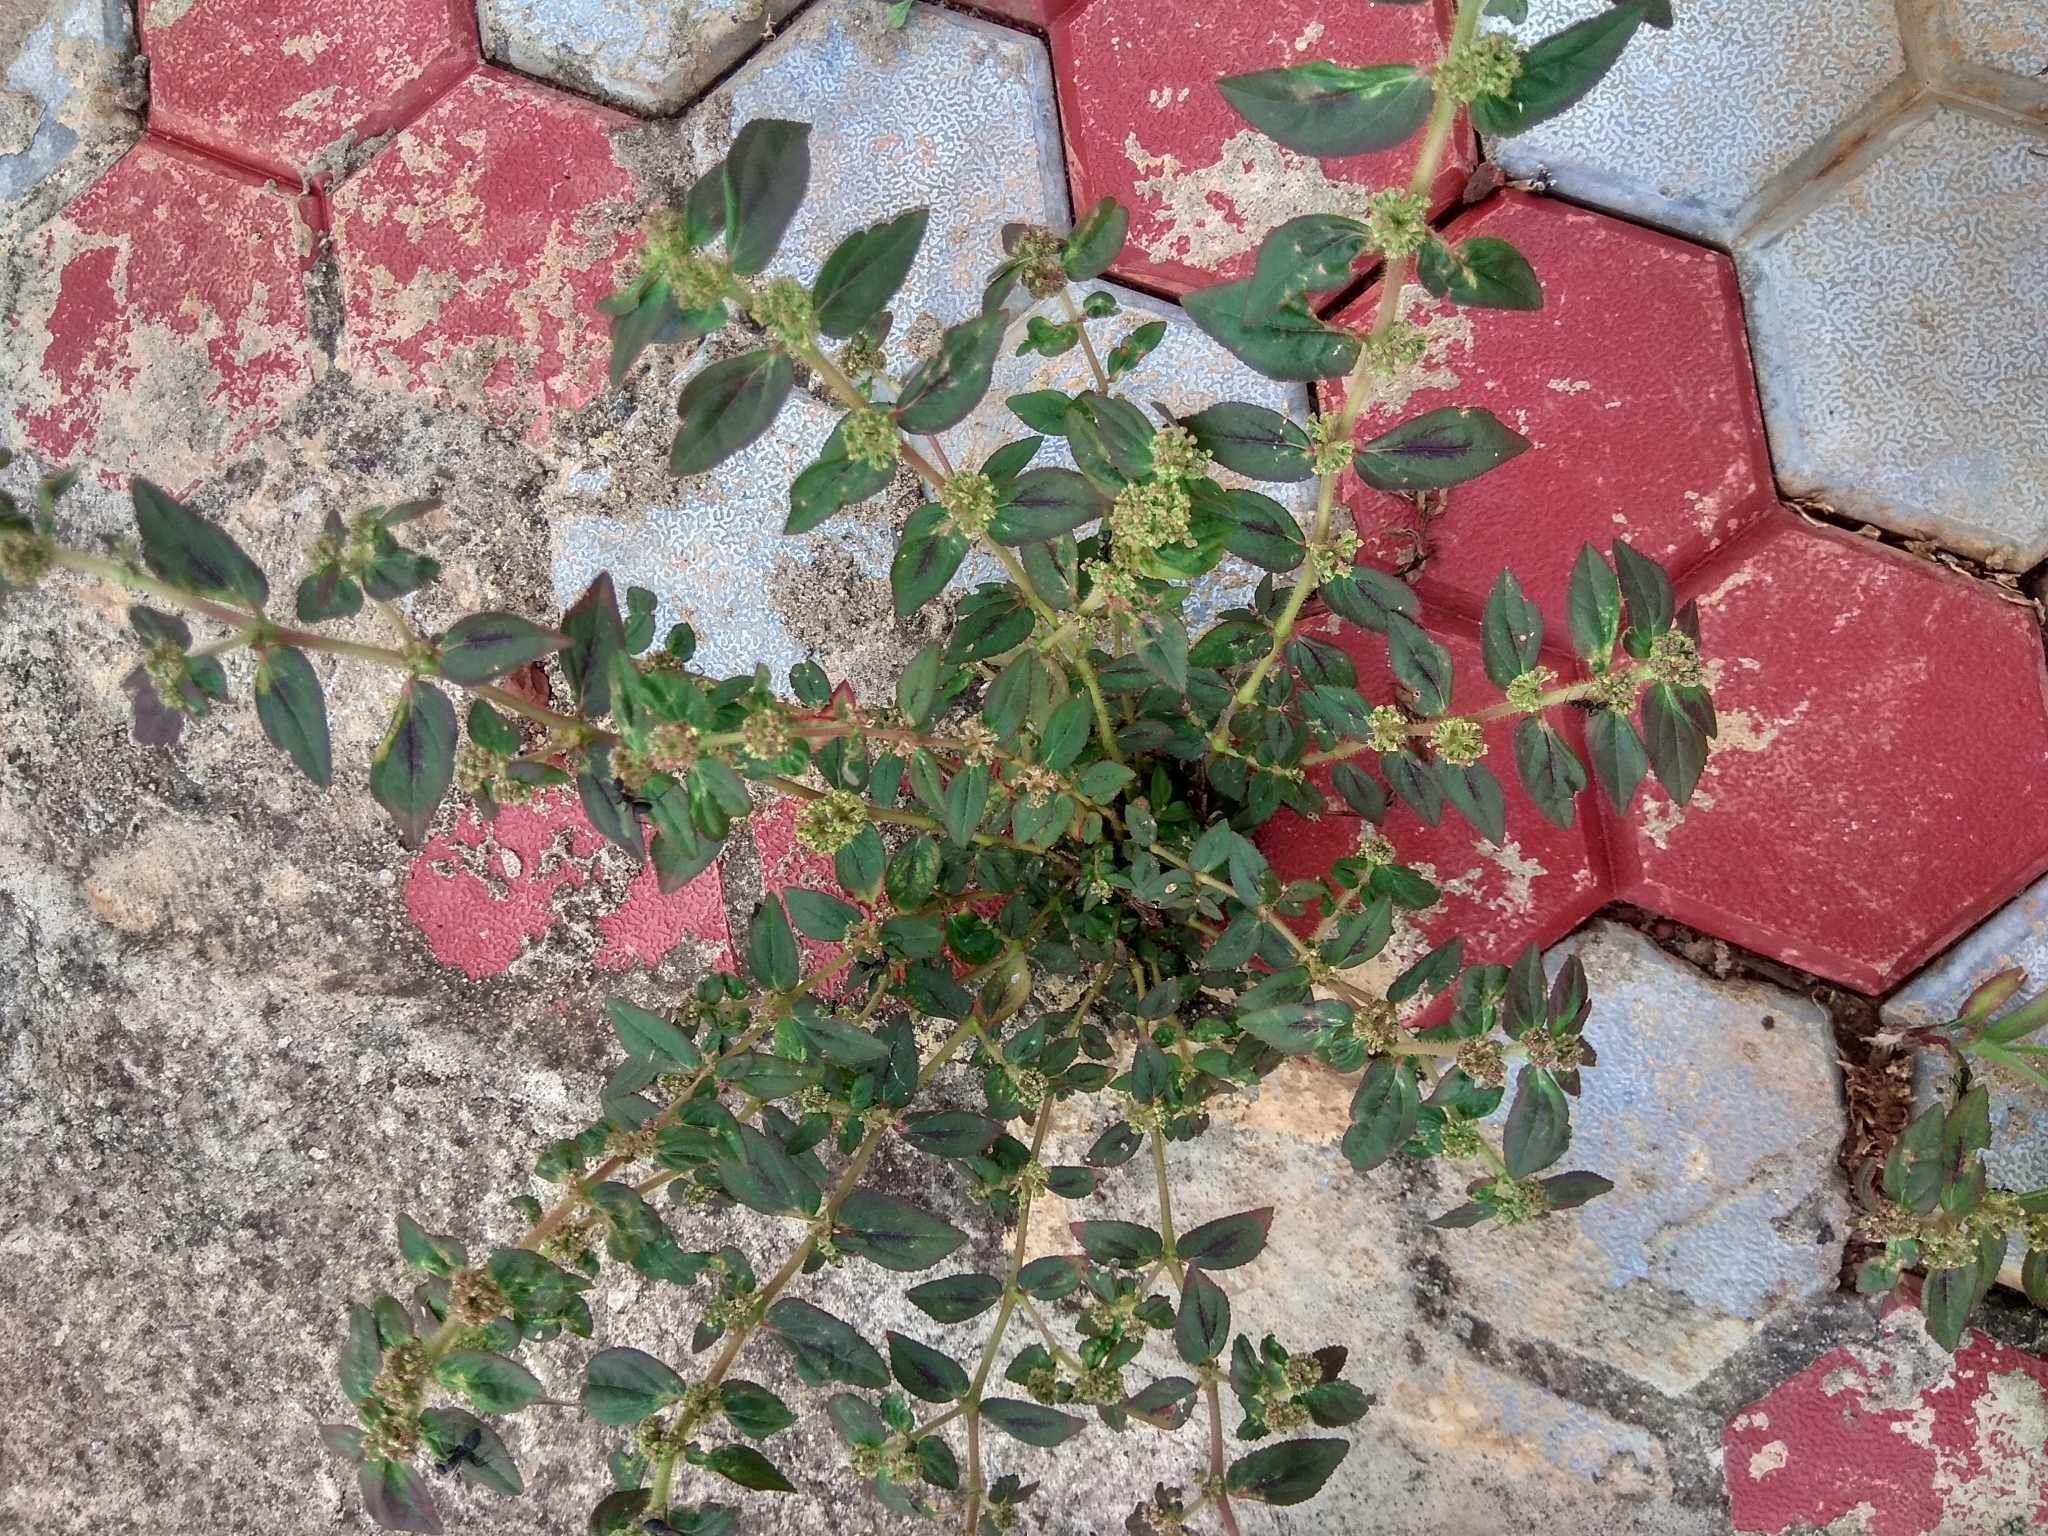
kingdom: Plantae
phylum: Tracheophyta
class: Magnoliopsida
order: Malpighiales
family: Euphorbiaceae
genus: Euphorbia
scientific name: Euphorbia hirta
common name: Pillpod sandmat
